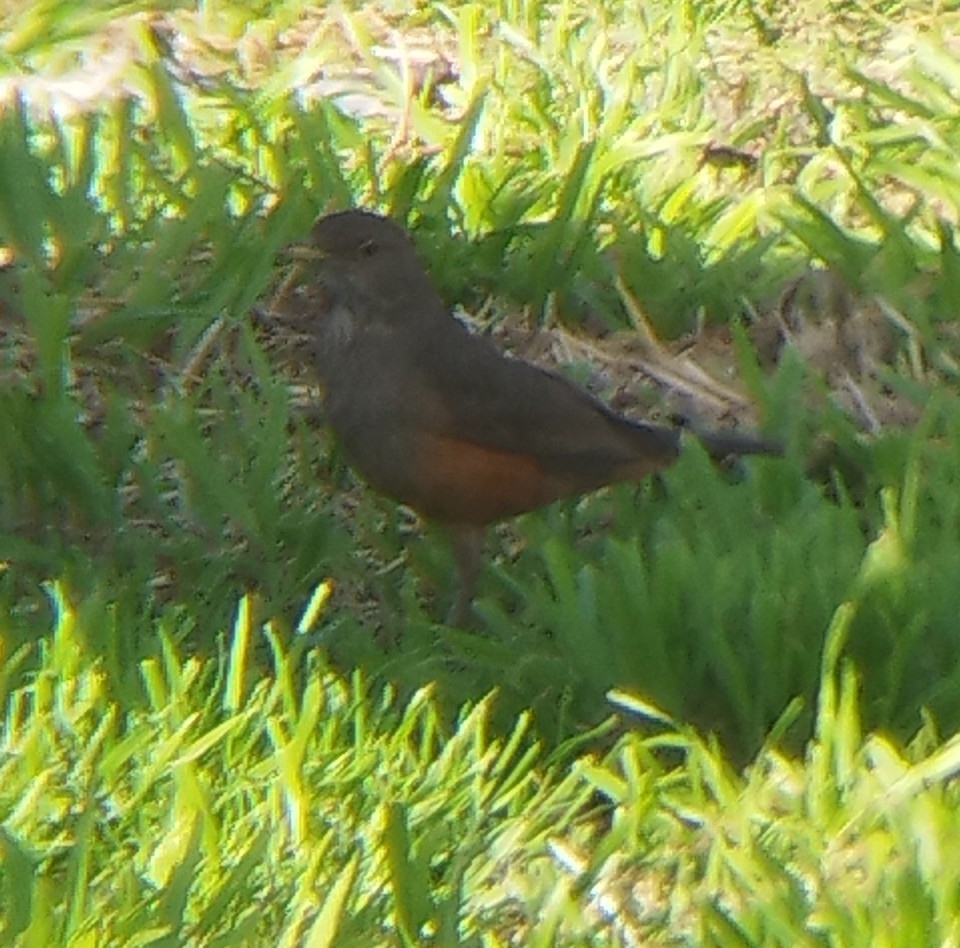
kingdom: Animalia
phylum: Chordata
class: Aves
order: Passeriformes
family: Turdidae
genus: Turdus
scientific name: Turdus rufiventris
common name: Rufous-bellied thrush
